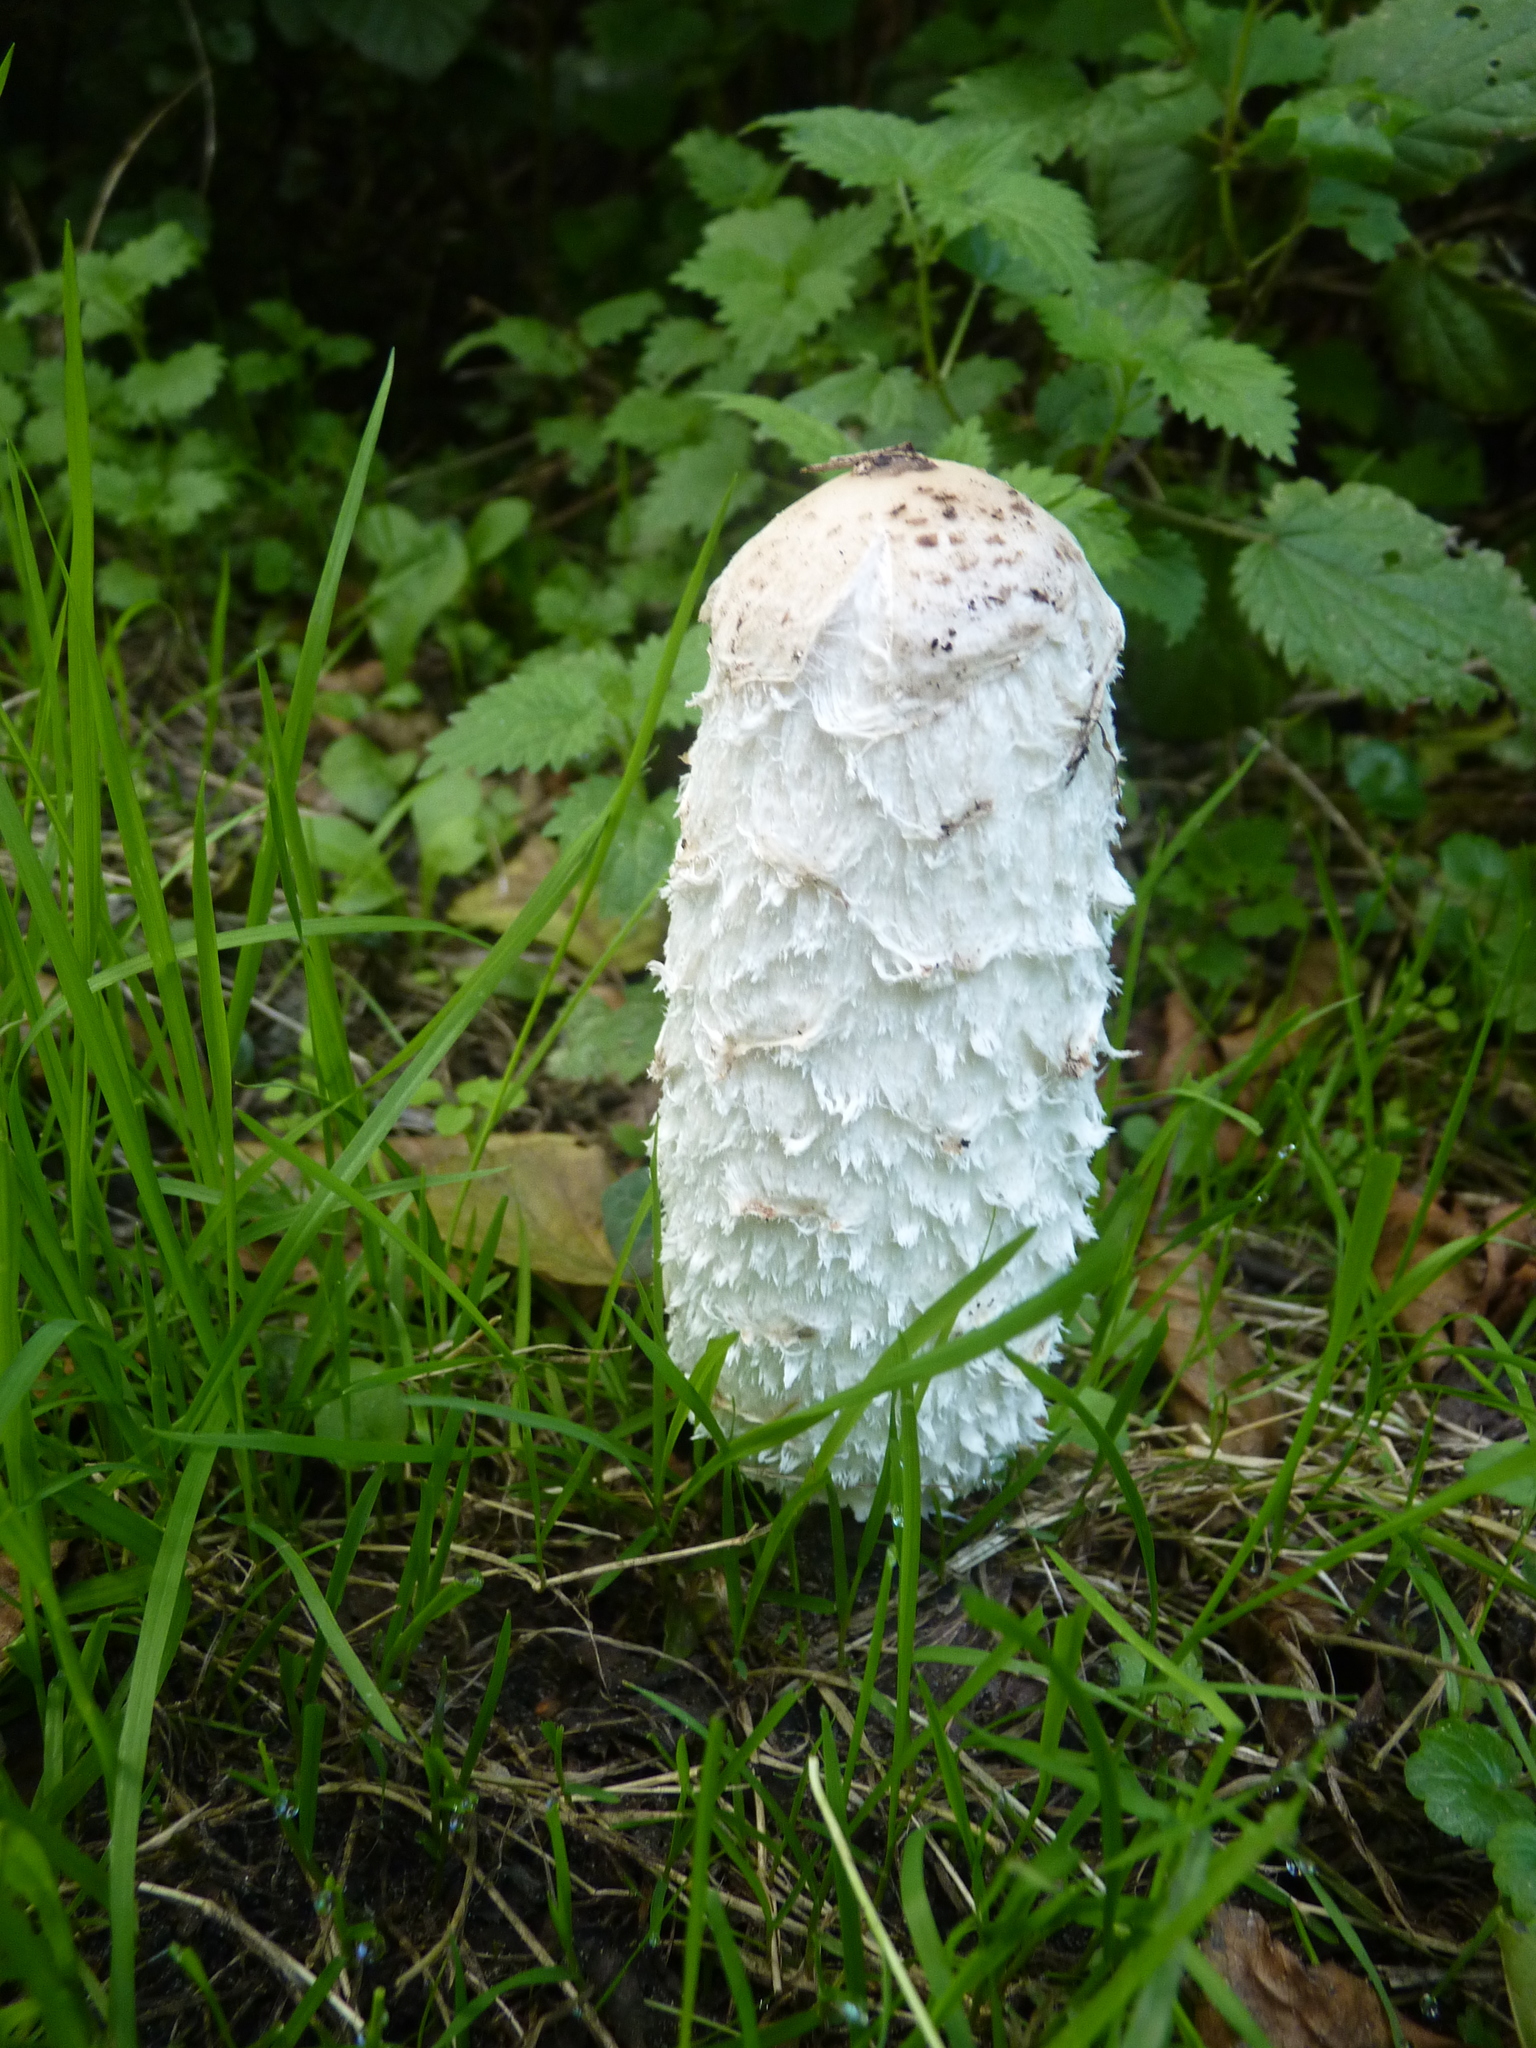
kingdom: Fungi
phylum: Basidiomycota
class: Agaricomycetes
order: Agaricales
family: Agaricaceae
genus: Coprinus
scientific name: Coprinus comatus
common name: Lawyer's wig
